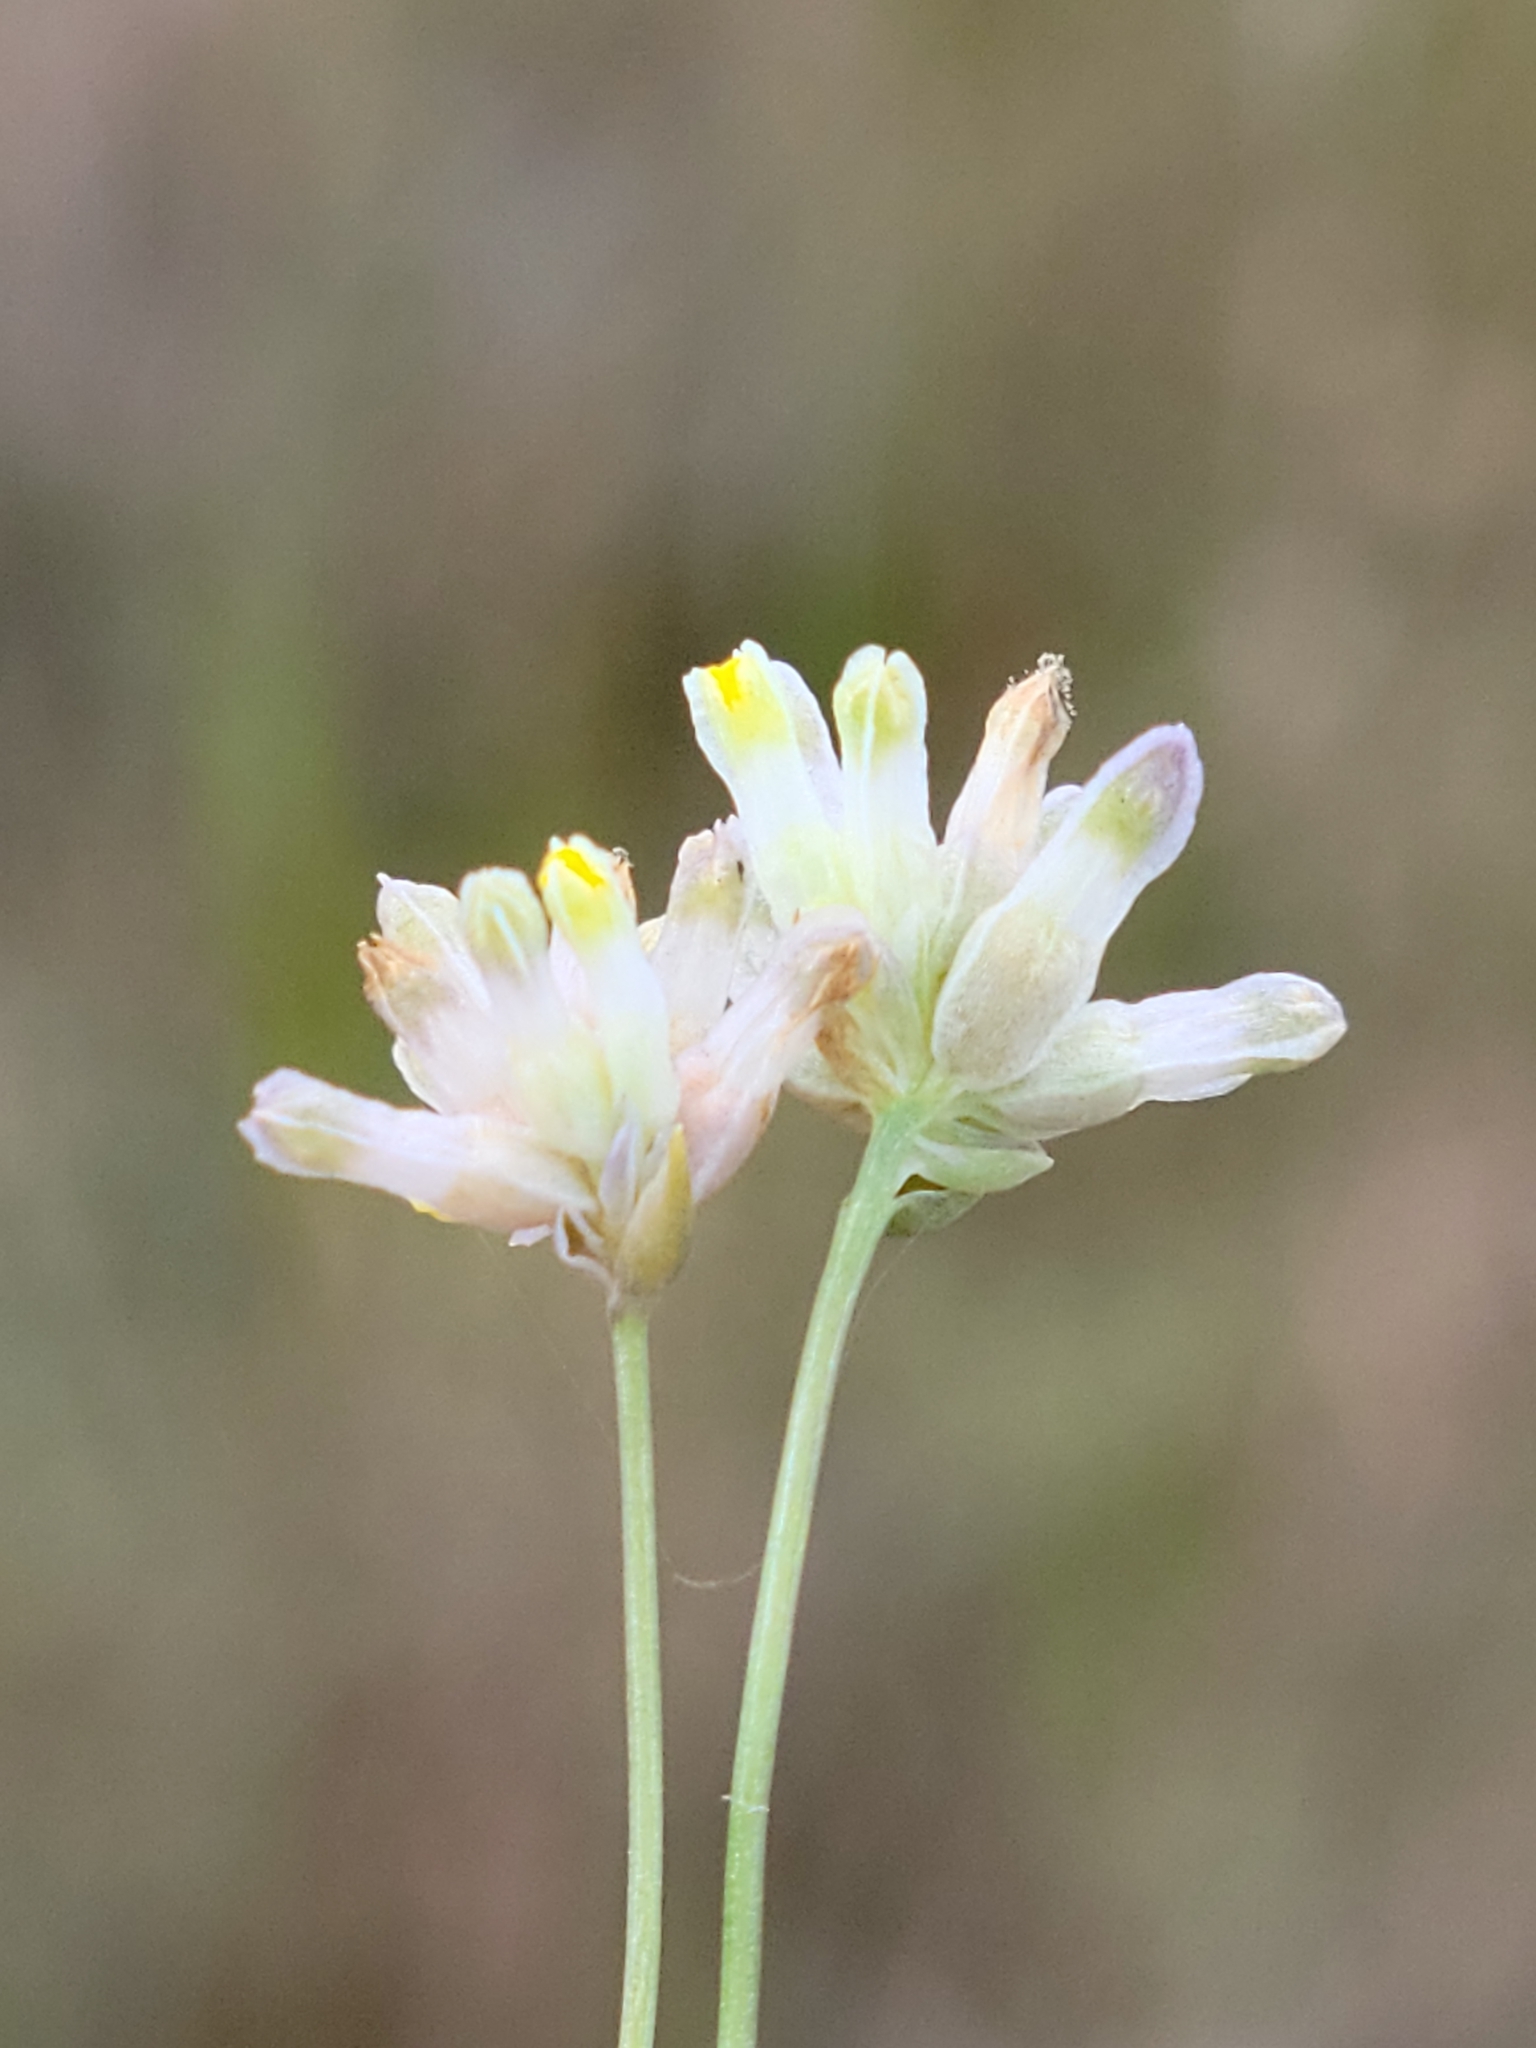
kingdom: Plantae
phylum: Tracheophyta
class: Liliopsida
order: Dioscoreales
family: Burmanniaceae
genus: Burmannia
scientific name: Burmannia capitata
